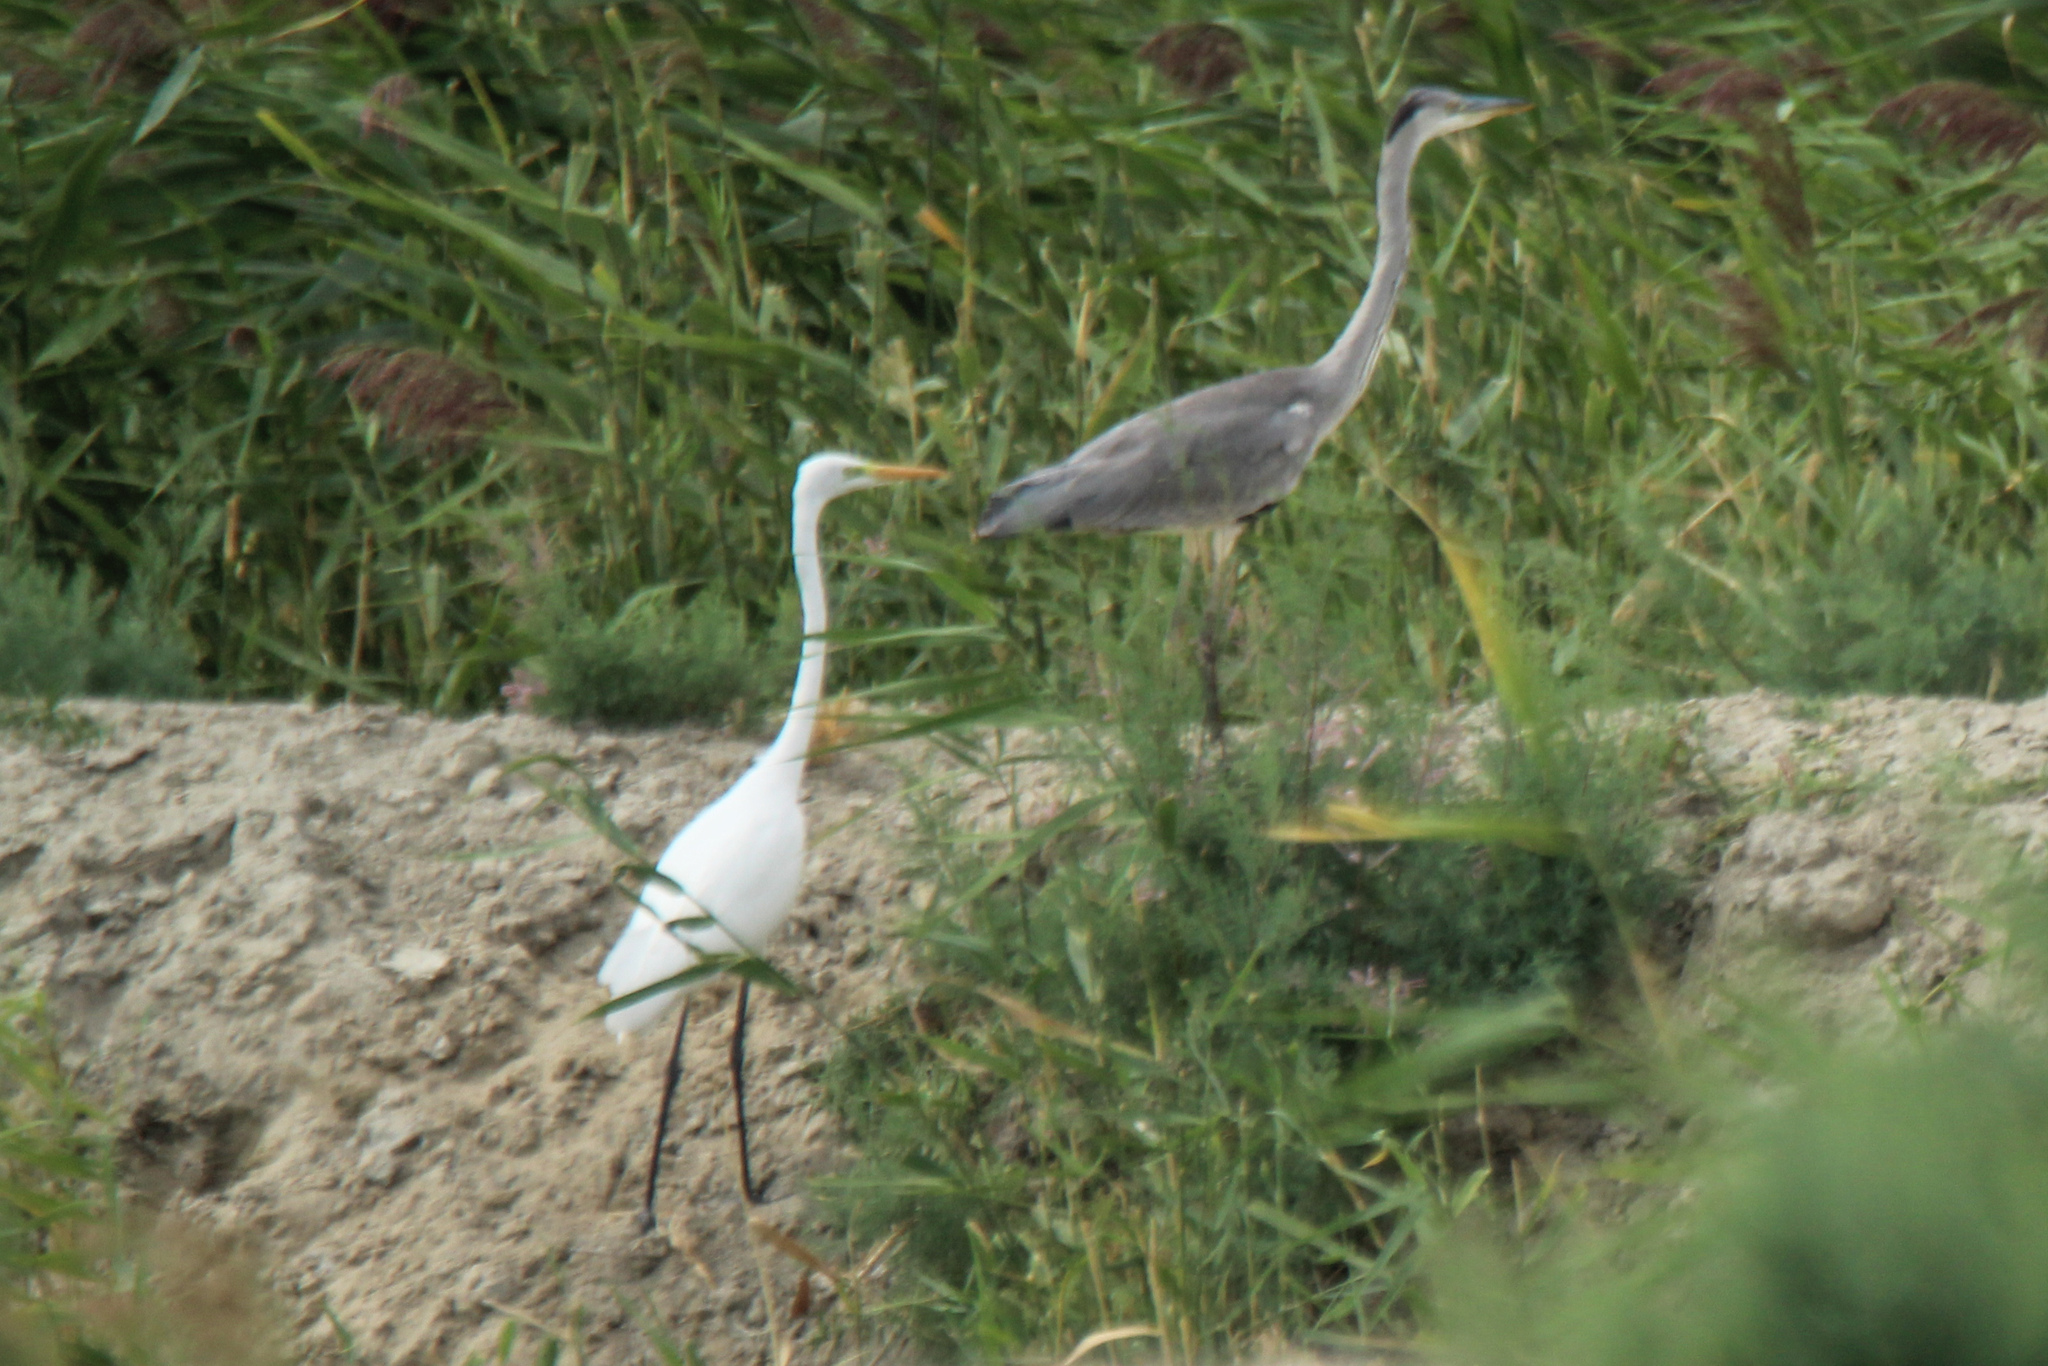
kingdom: Animalia
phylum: Chordata
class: Aves
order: Pelecaniformes
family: Ardeidae
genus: Ardea
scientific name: Ardea alba
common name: Great egret
